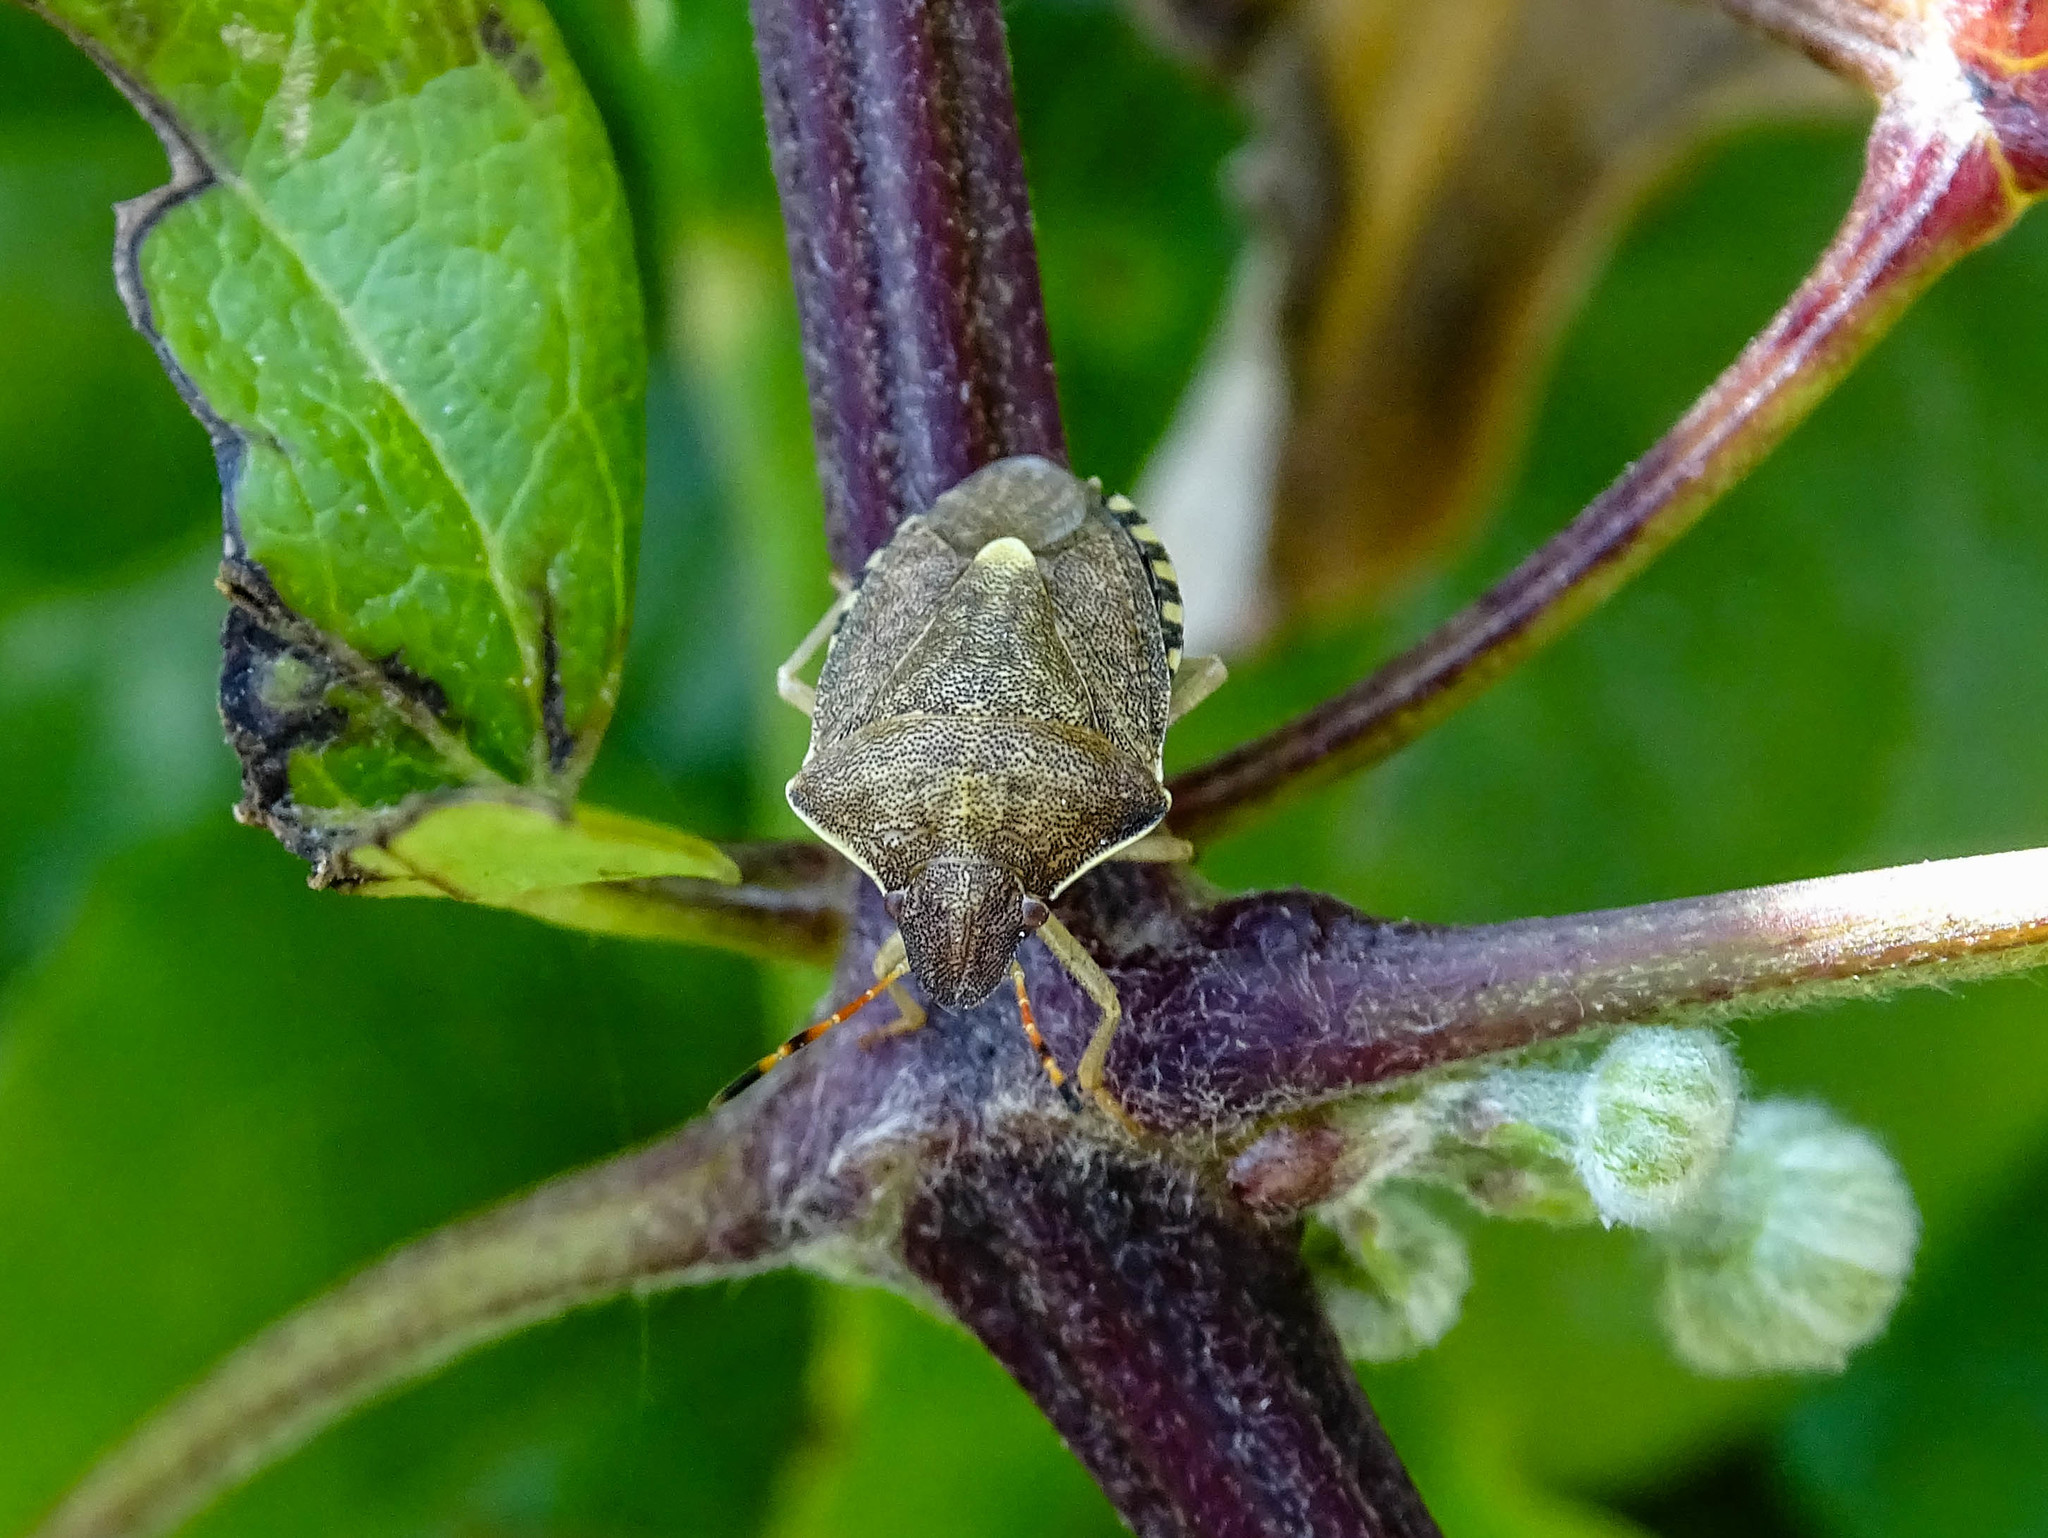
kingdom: Animalia
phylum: Arthropoda
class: Insecta
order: Hemiptera
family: Pentatomidae
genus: Holcostethus
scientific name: Holcostethus strictus
